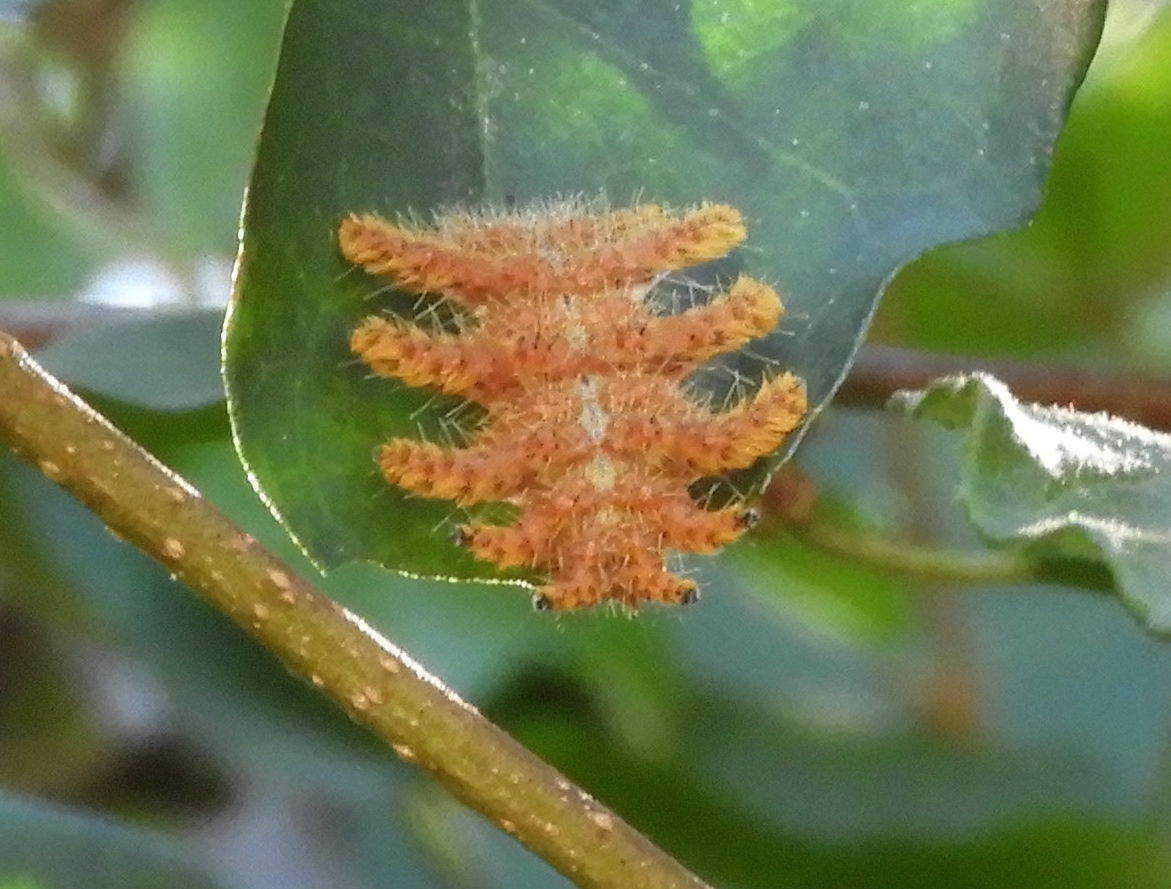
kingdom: Animalia
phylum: Arthropoda
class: Insecta
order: Lepidoptera
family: Limacodidae
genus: Phobetron
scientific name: Phobetron pithecium
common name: Hag moth
